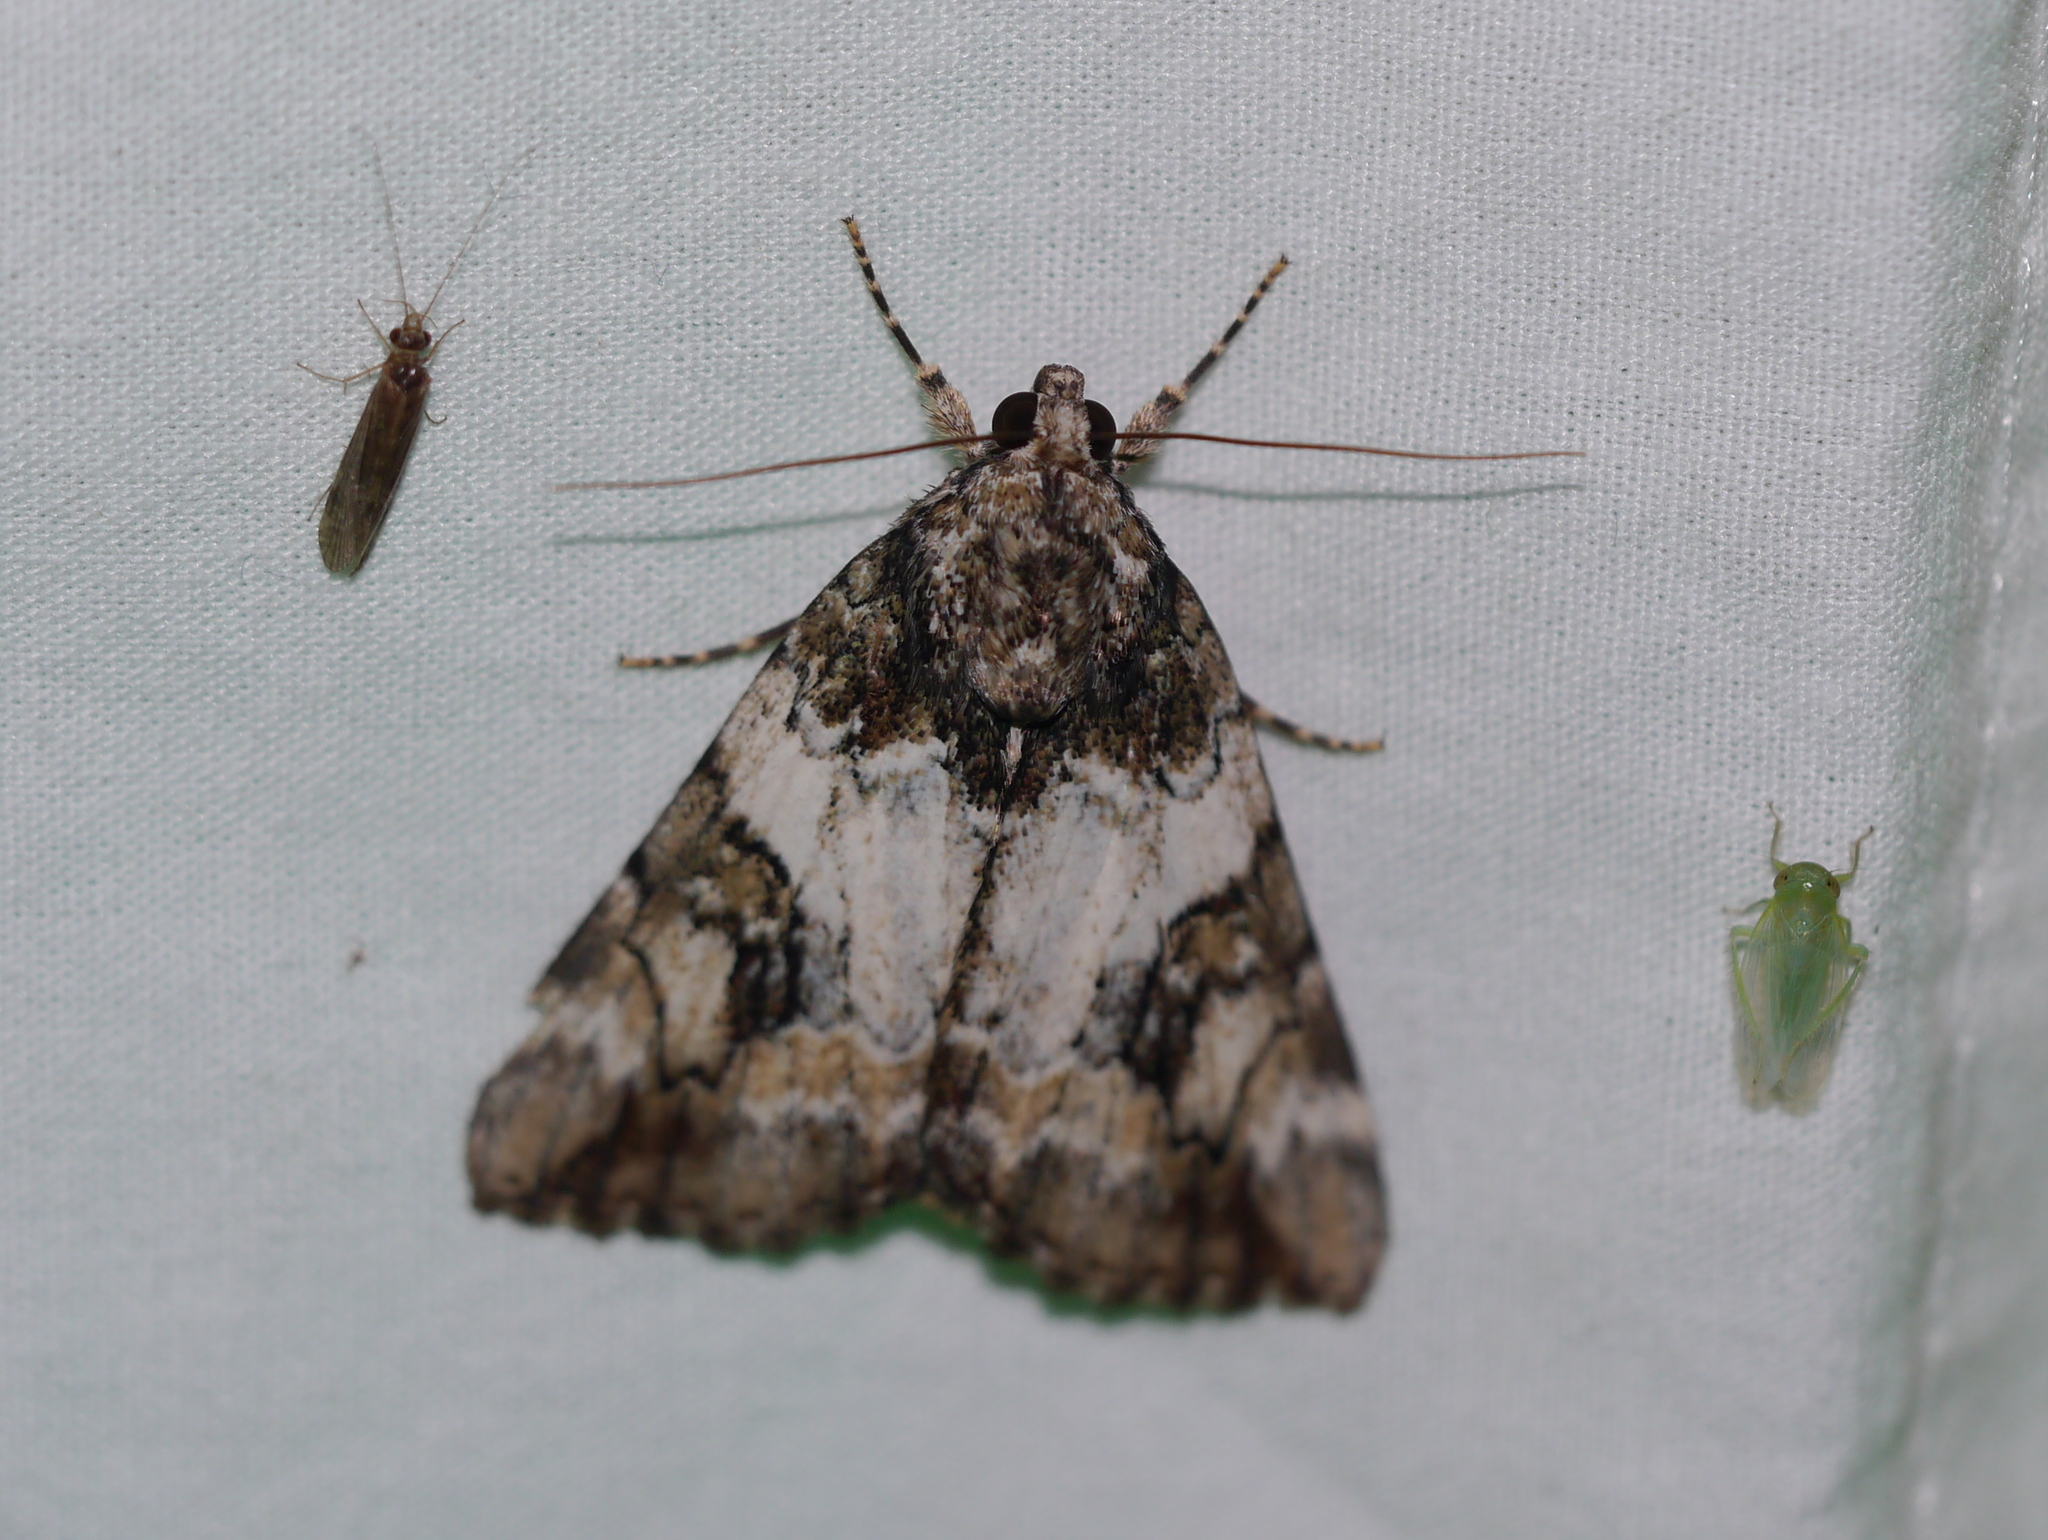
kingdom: Animalia
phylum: Arthropoda
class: Insecta
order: Lepidoptera
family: Erebidae
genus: Catocala
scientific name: Catocala micronympha
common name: Little nymph underwing
